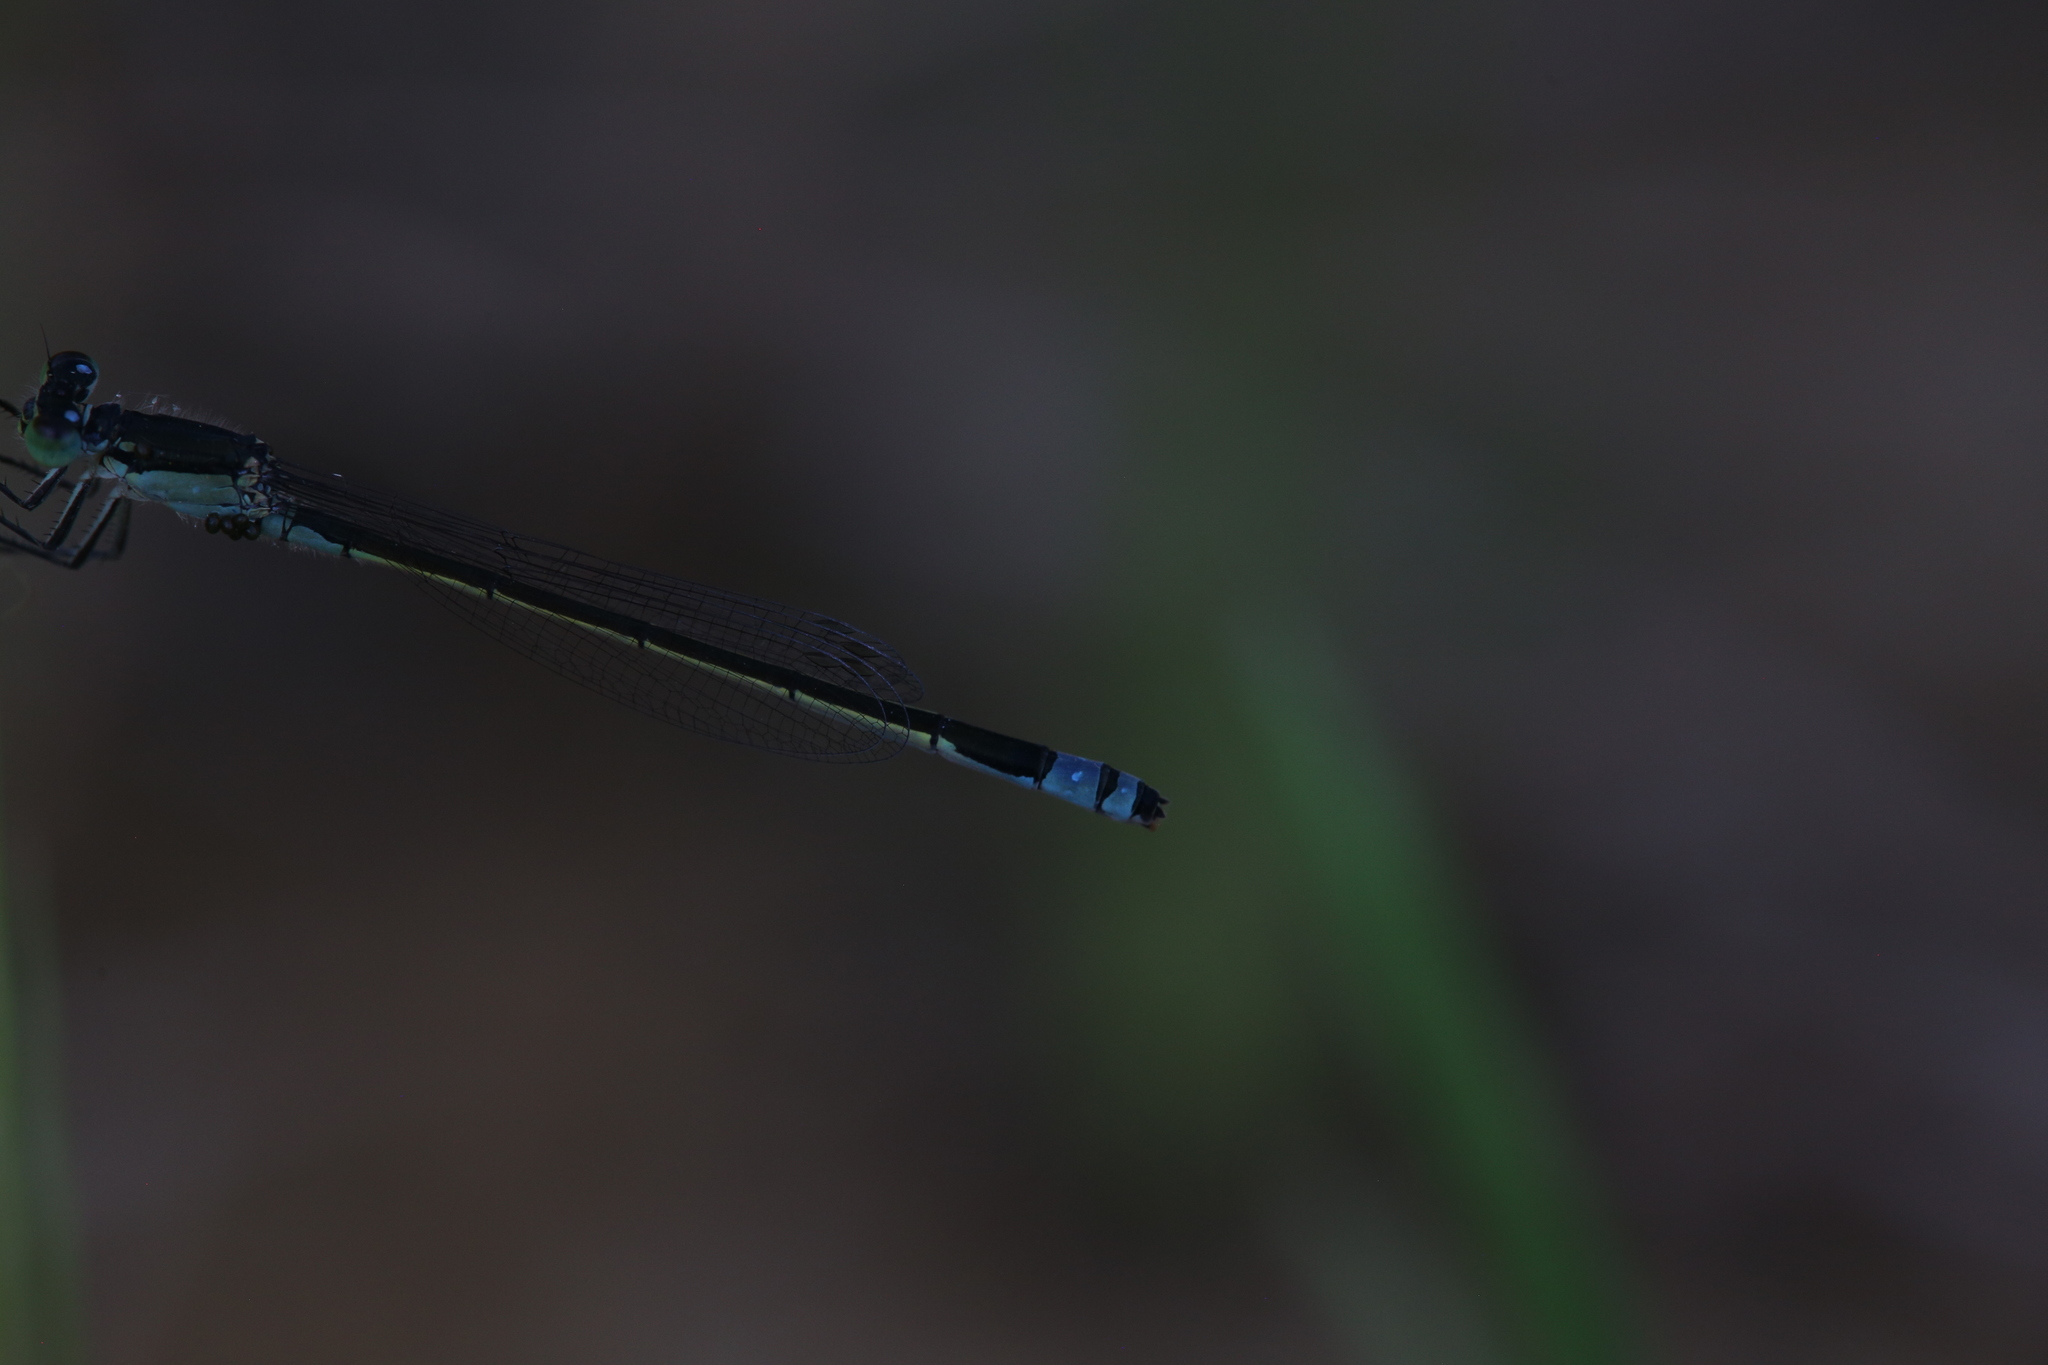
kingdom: Animalia
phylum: Arthropoda
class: Insecta
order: Odonata
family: Coenagrionidae
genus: Ischnura
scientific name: Ischnura heterosticta
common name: Common bluetail
